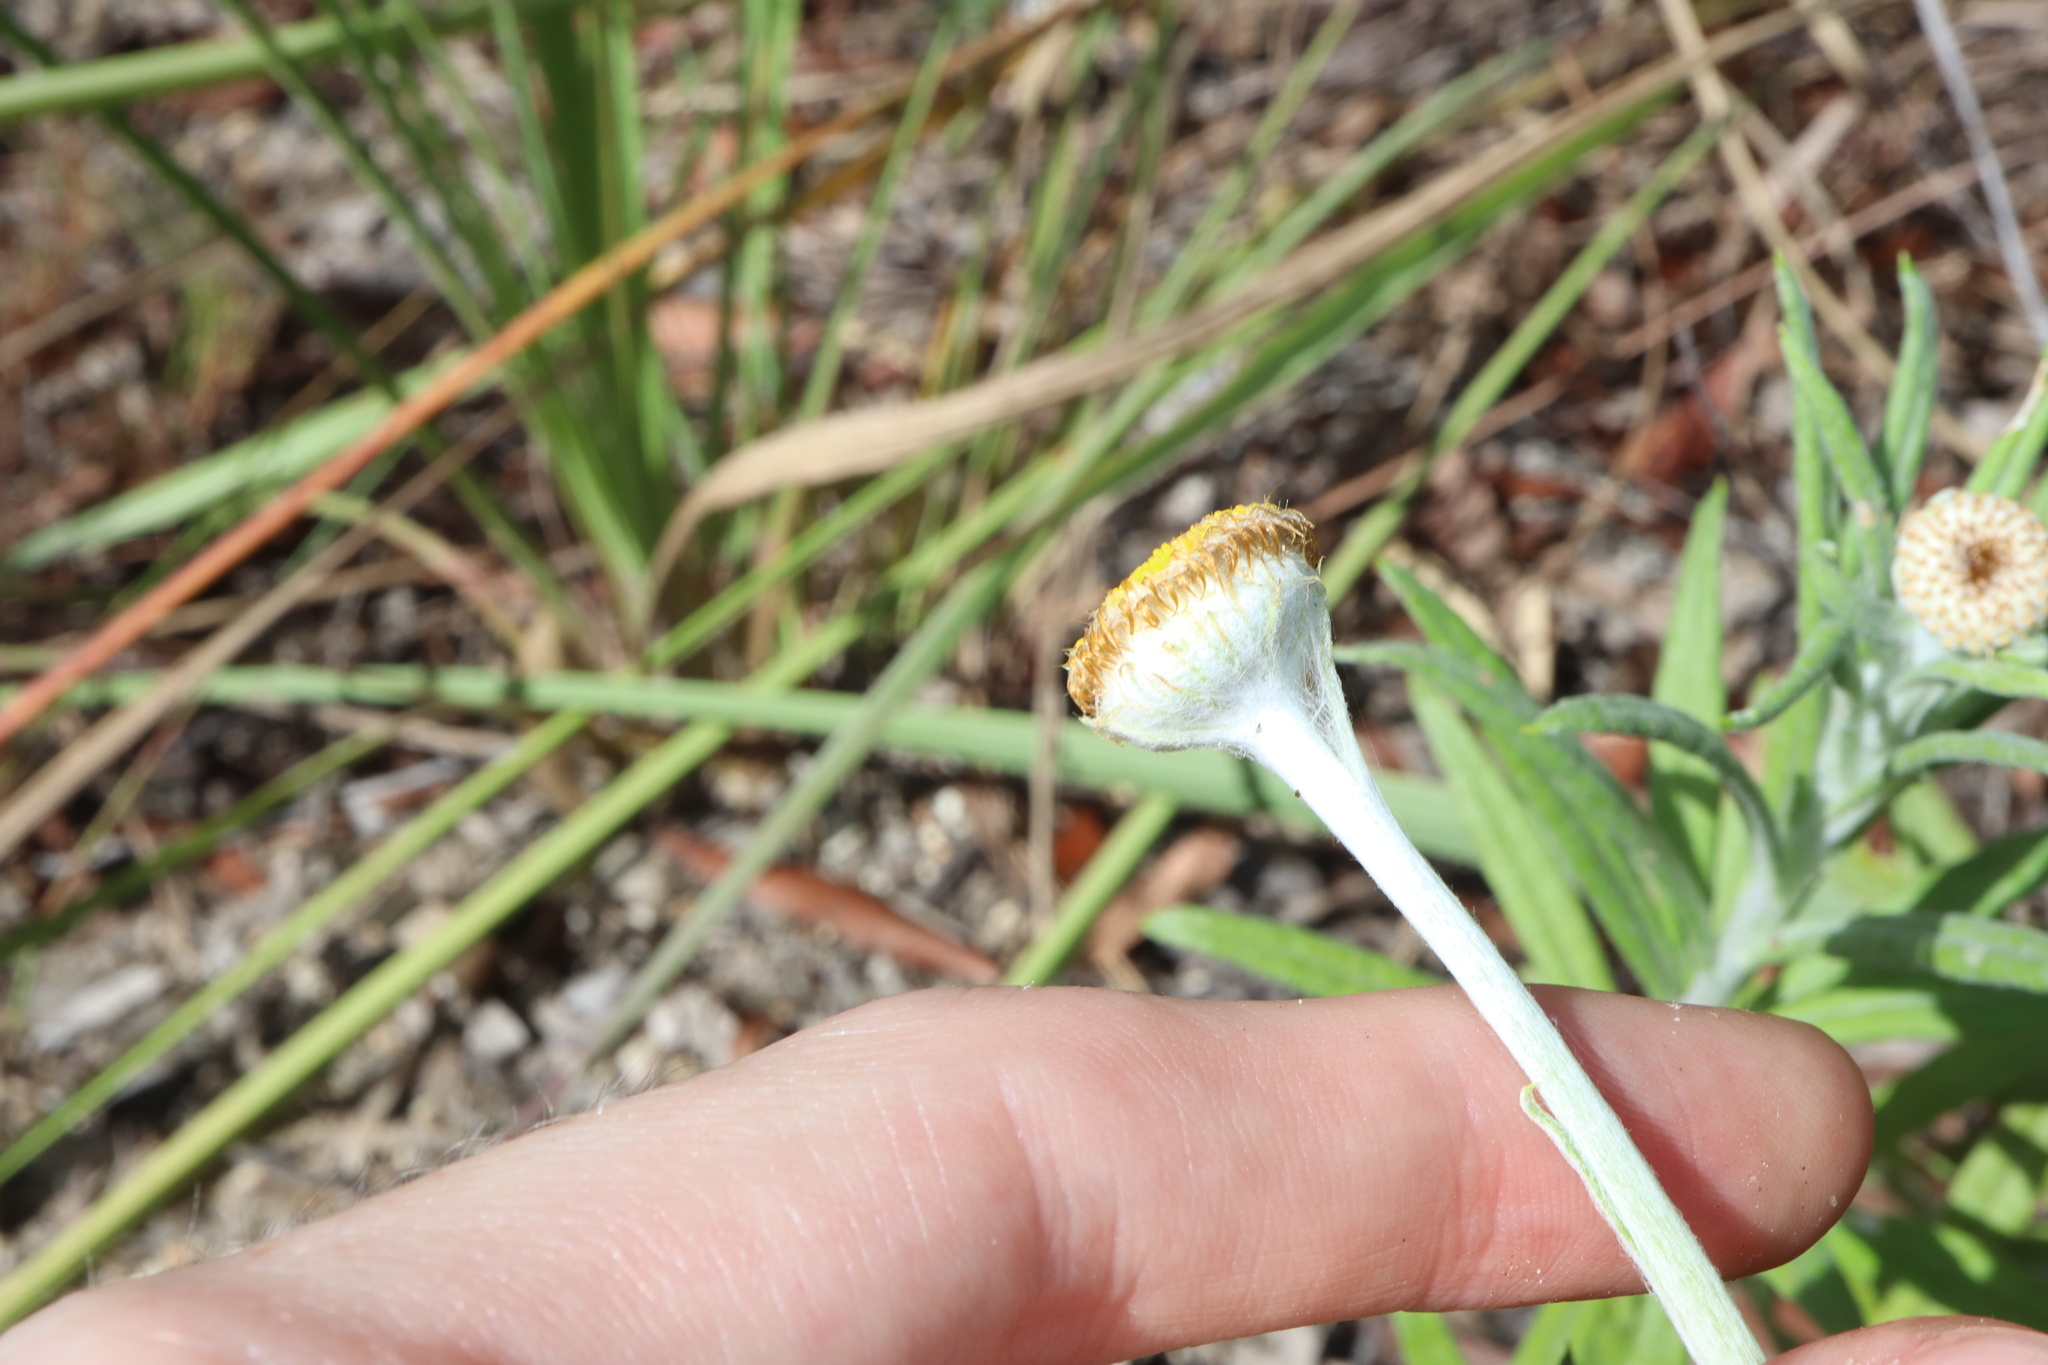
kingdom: Plantae
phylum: Tracheophyta
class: Magnoliopsida
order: Asterales
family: Asteraceae
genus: Coronidium
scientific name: Coronidium rupicola
